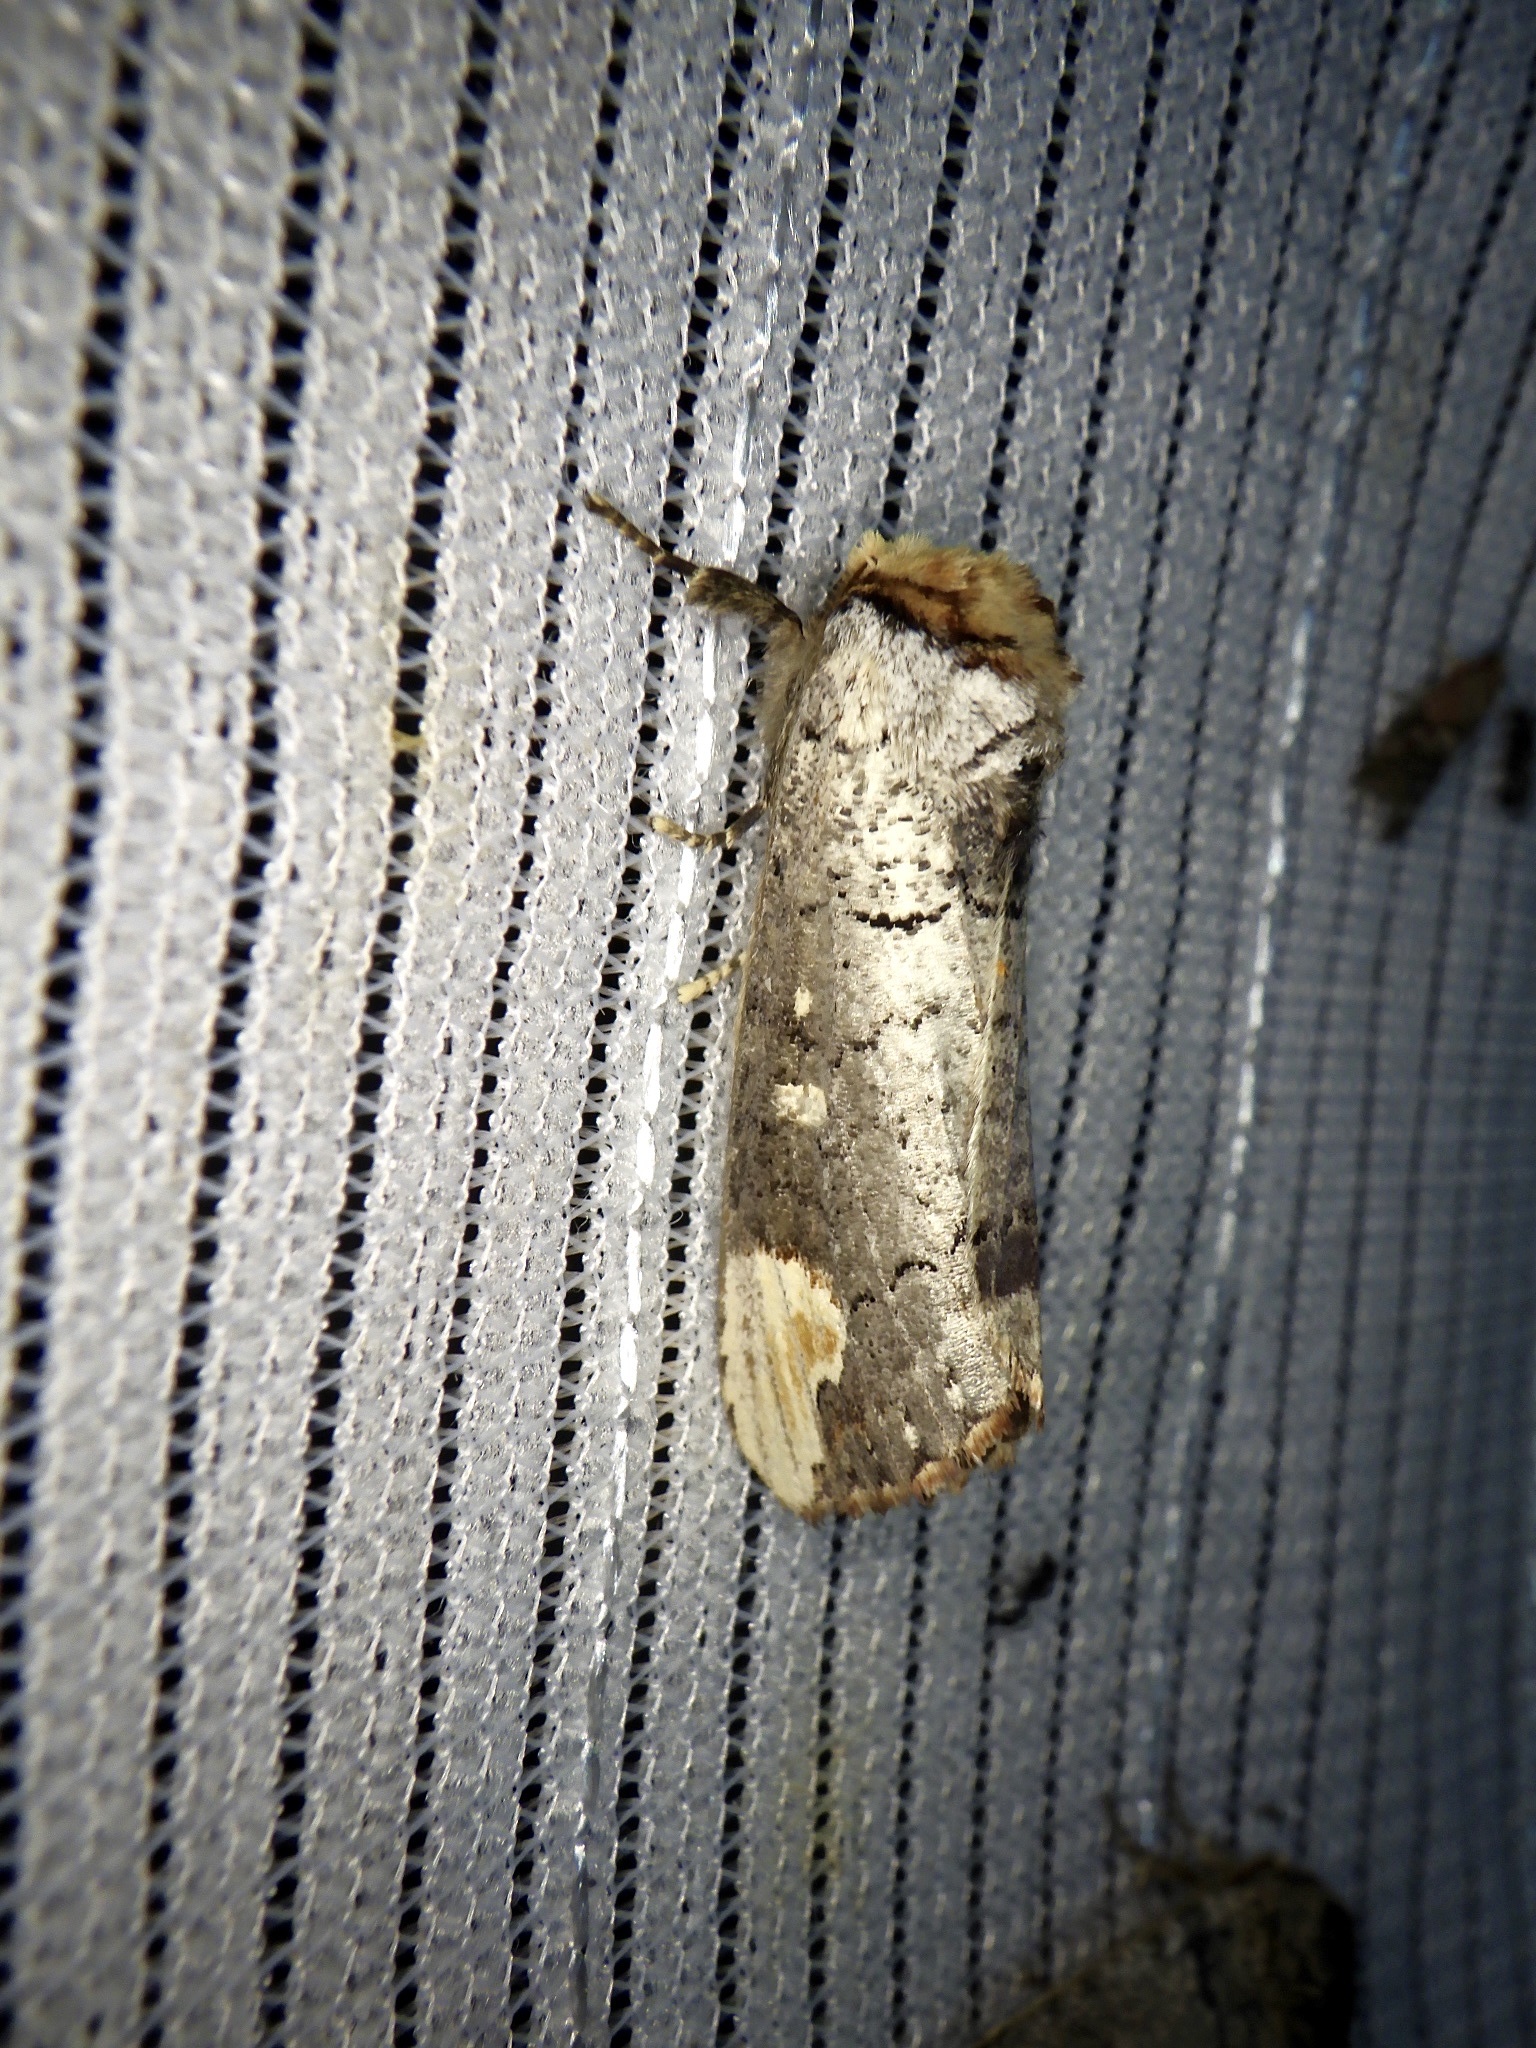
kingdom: Animalia
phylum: Arthropoda
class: Insecta
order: Lepidoptera
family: Notodontidae
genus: Phalera
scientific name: Phalera assimilis
